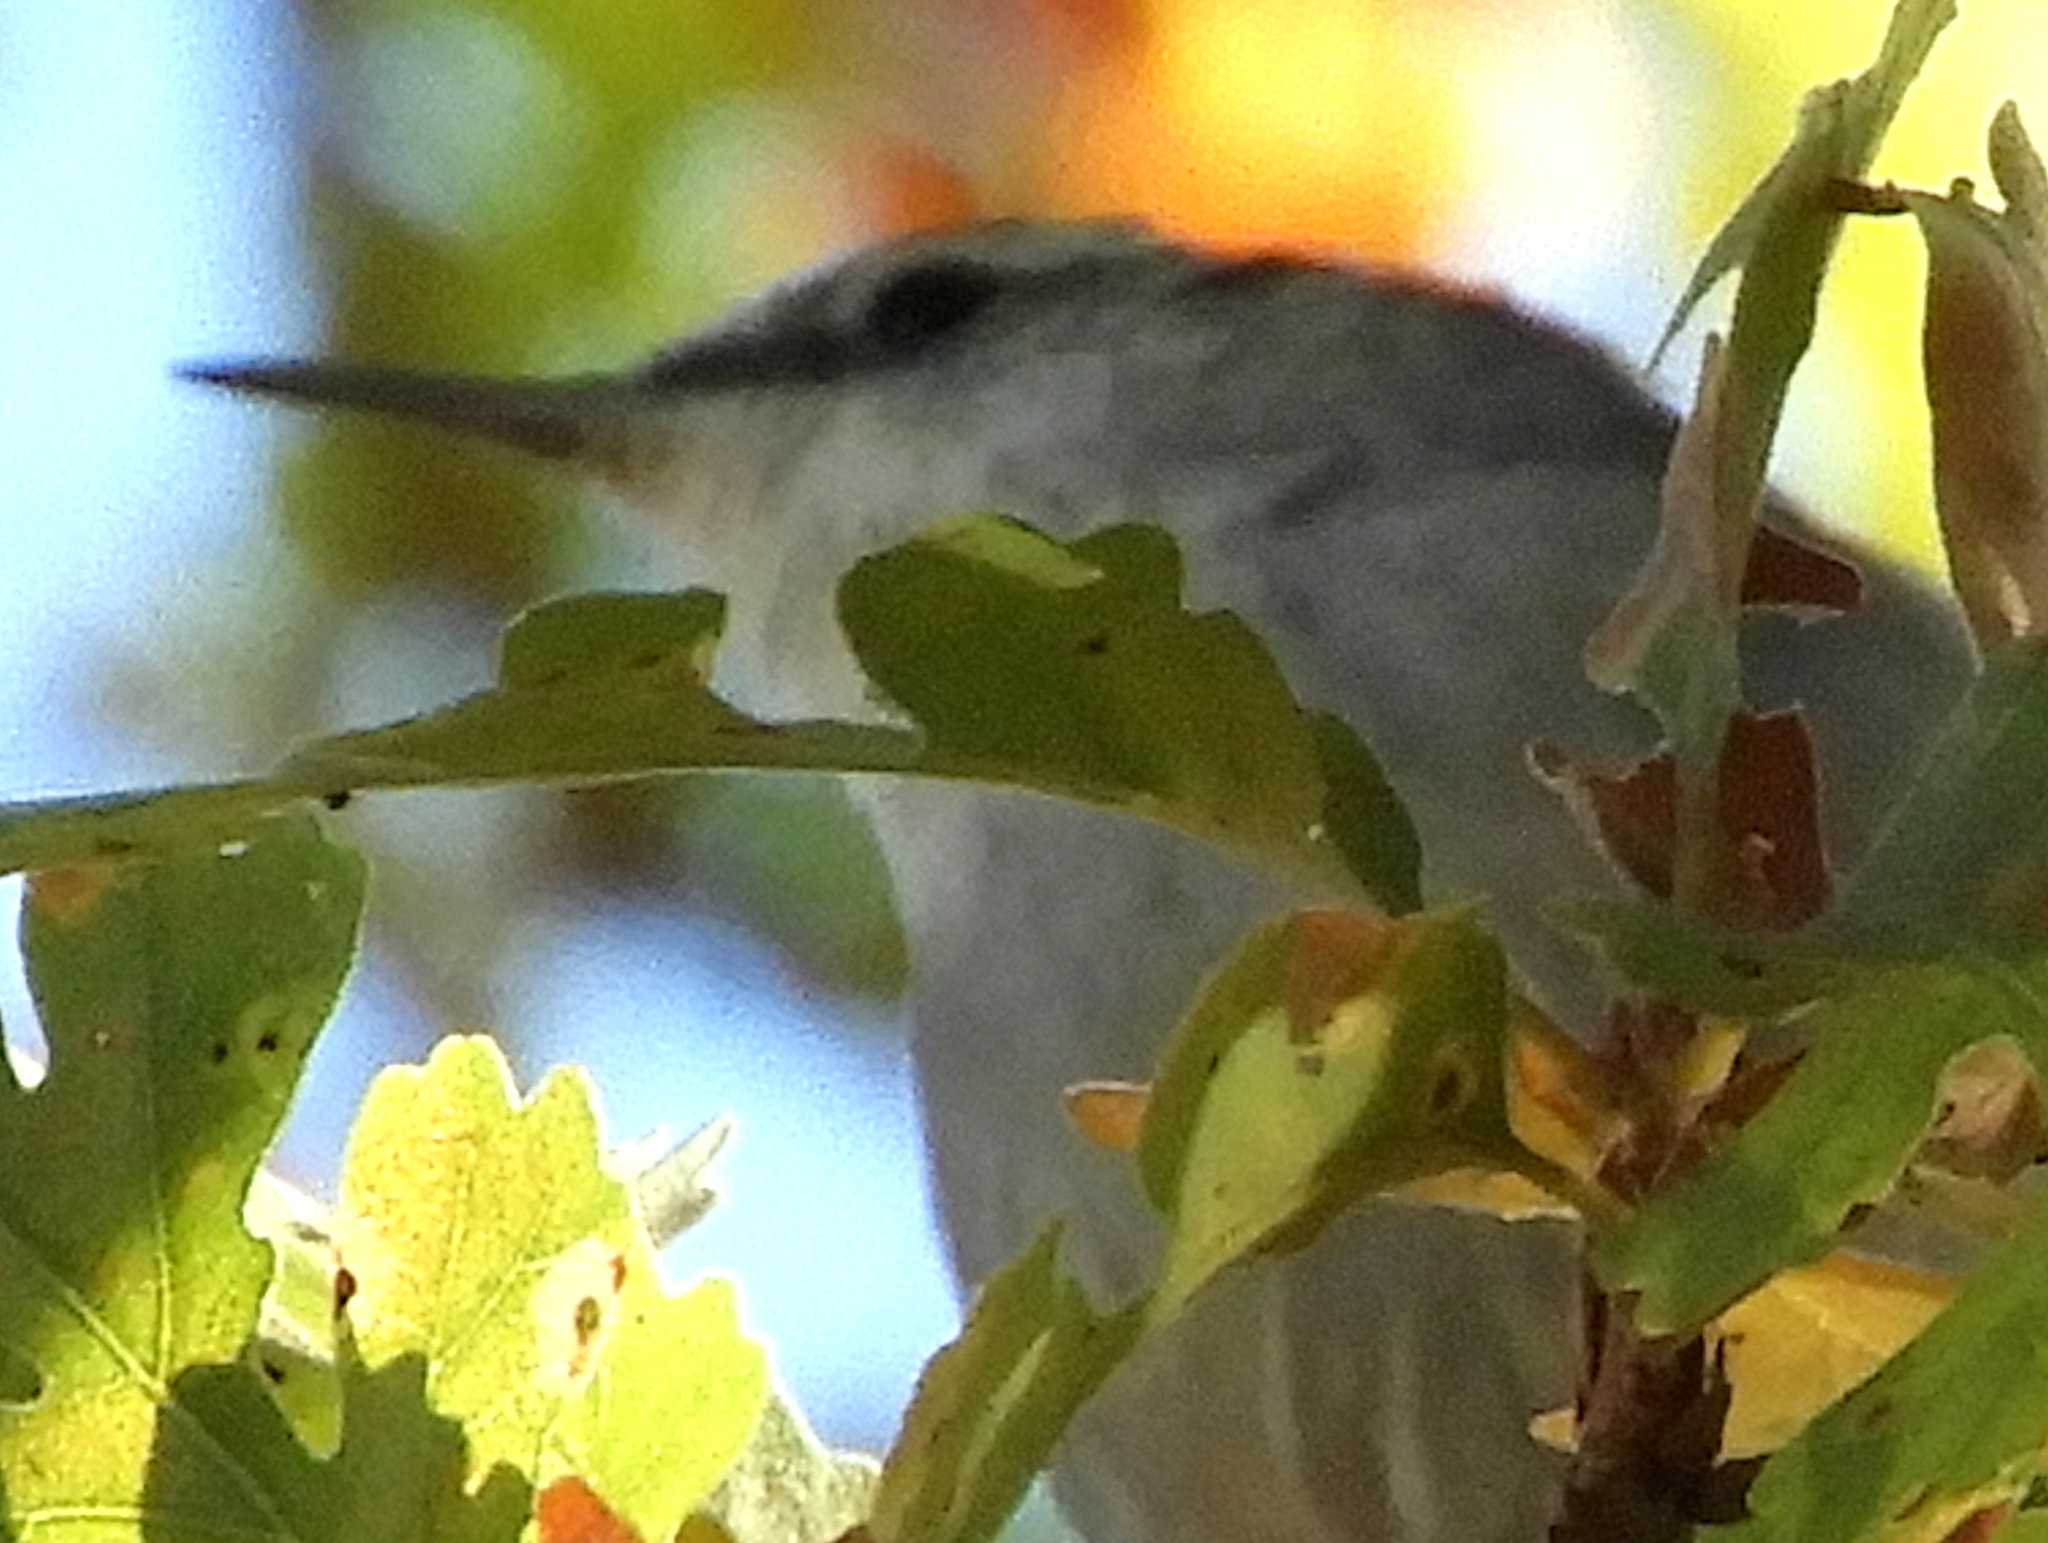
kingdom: Animalia
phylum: Chordata
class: Aves
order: Passeriformes
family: Troglodytidae
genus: Thryomanes
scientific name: Thryomanes bewickii
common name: Bewick's wren
